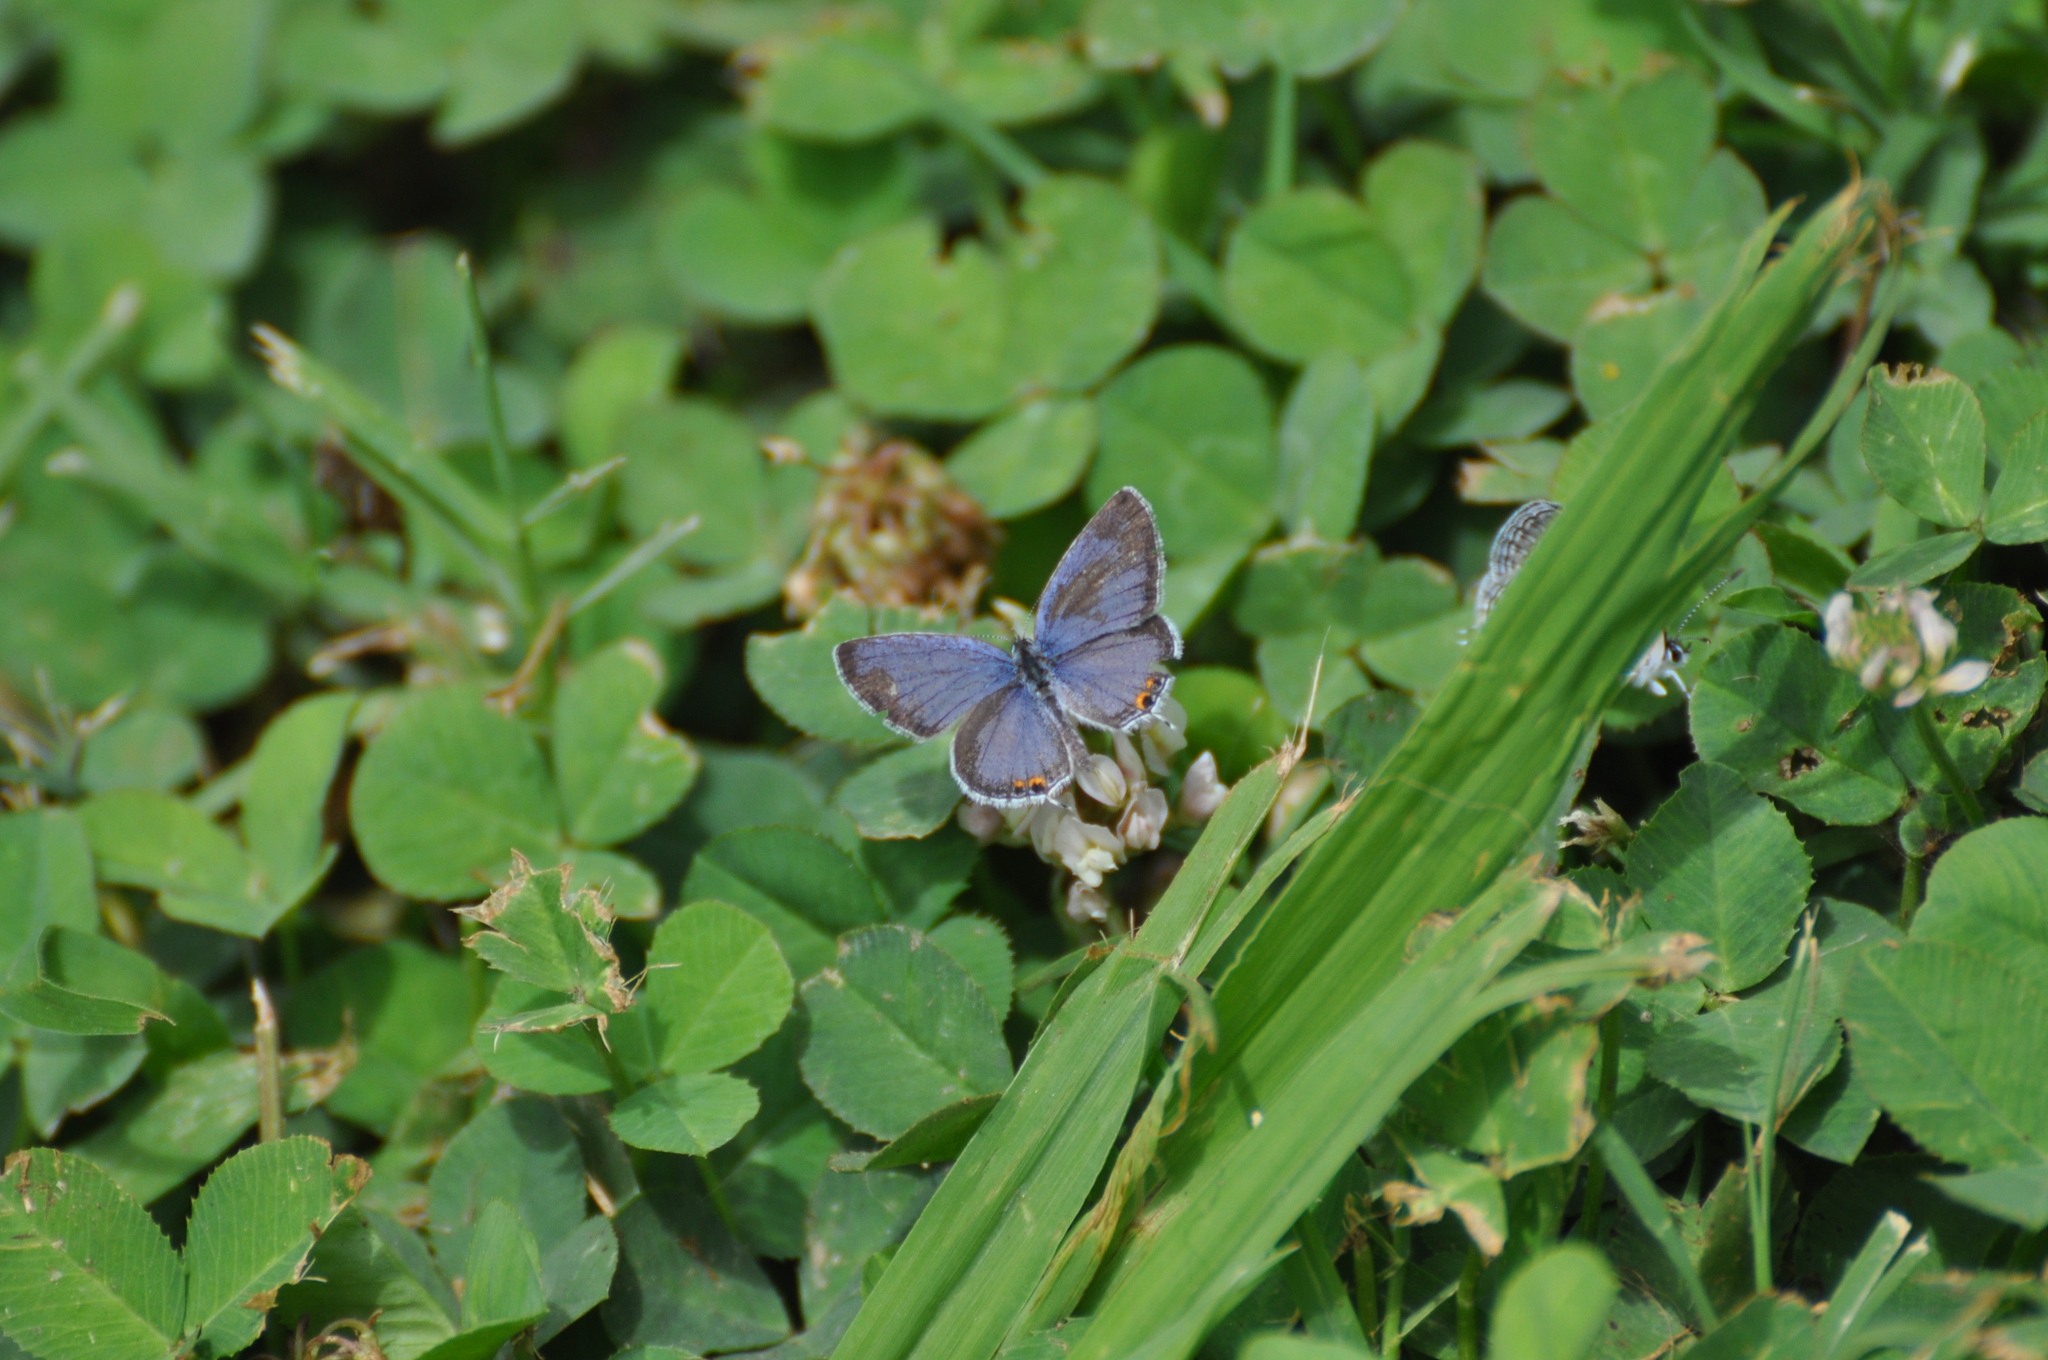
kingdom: Animalia
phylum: Arthropoda
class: Insecta
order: Lepidoptera
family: Lycaenidae
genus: Elkalyce
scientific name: Elkalyce comyntas
